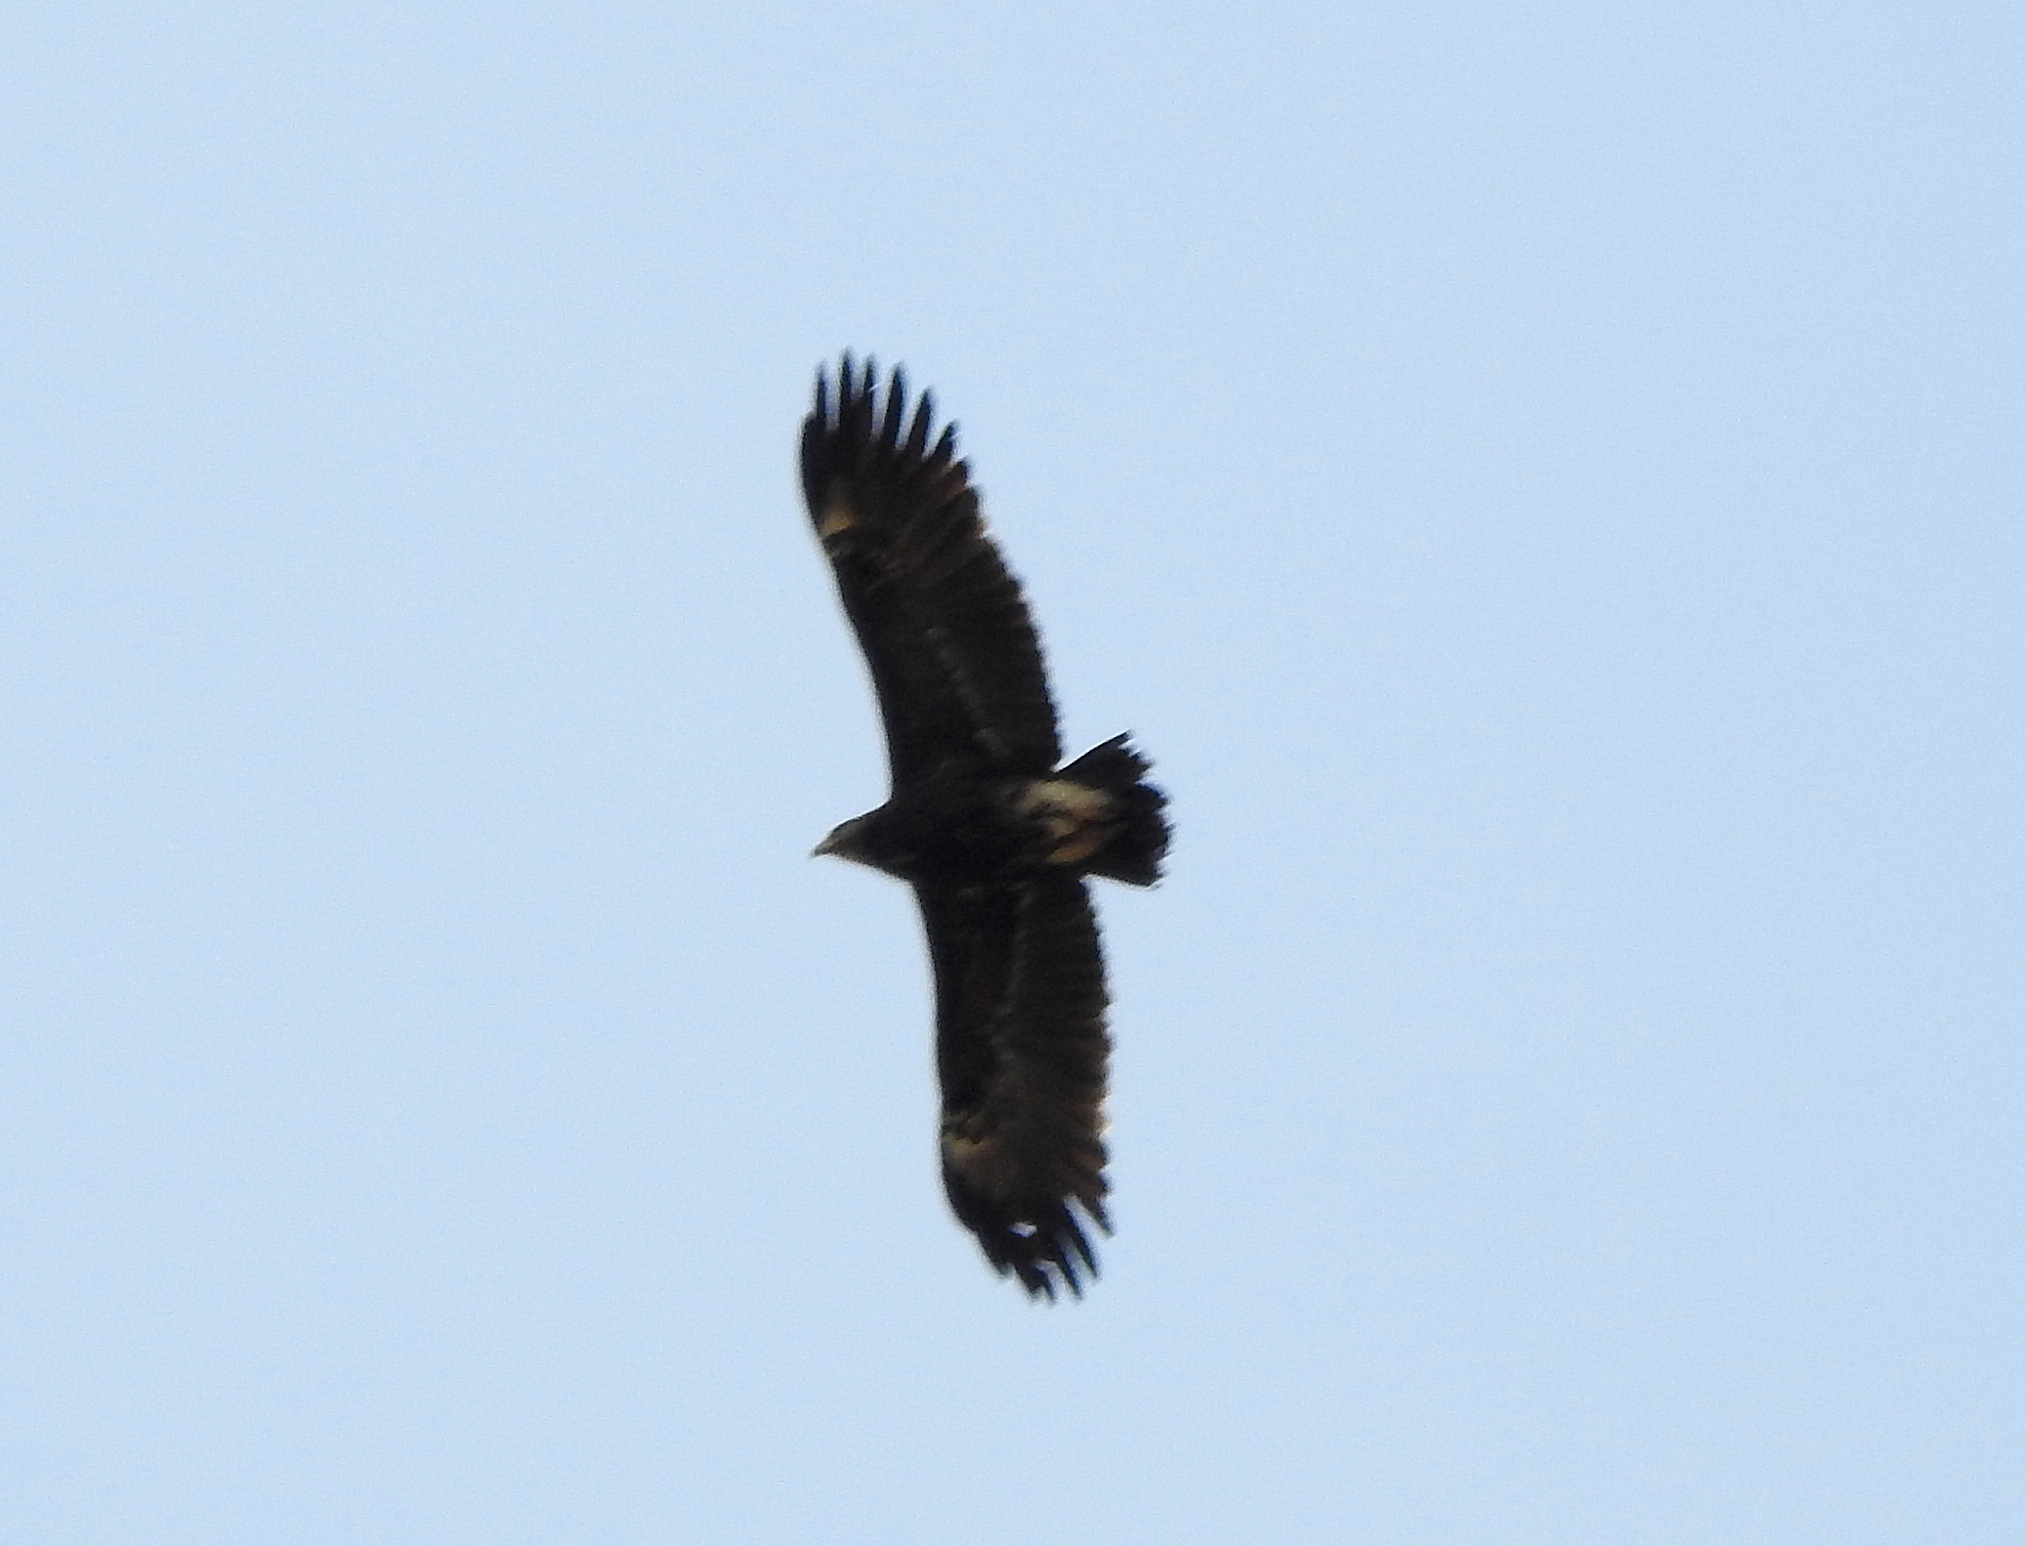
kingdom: Animalia
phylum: Chordata
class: Aves
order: Accipitriformes
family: Accipitridae
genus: Aquila
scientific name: Aquila clanga
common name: Greater spotted eagle
